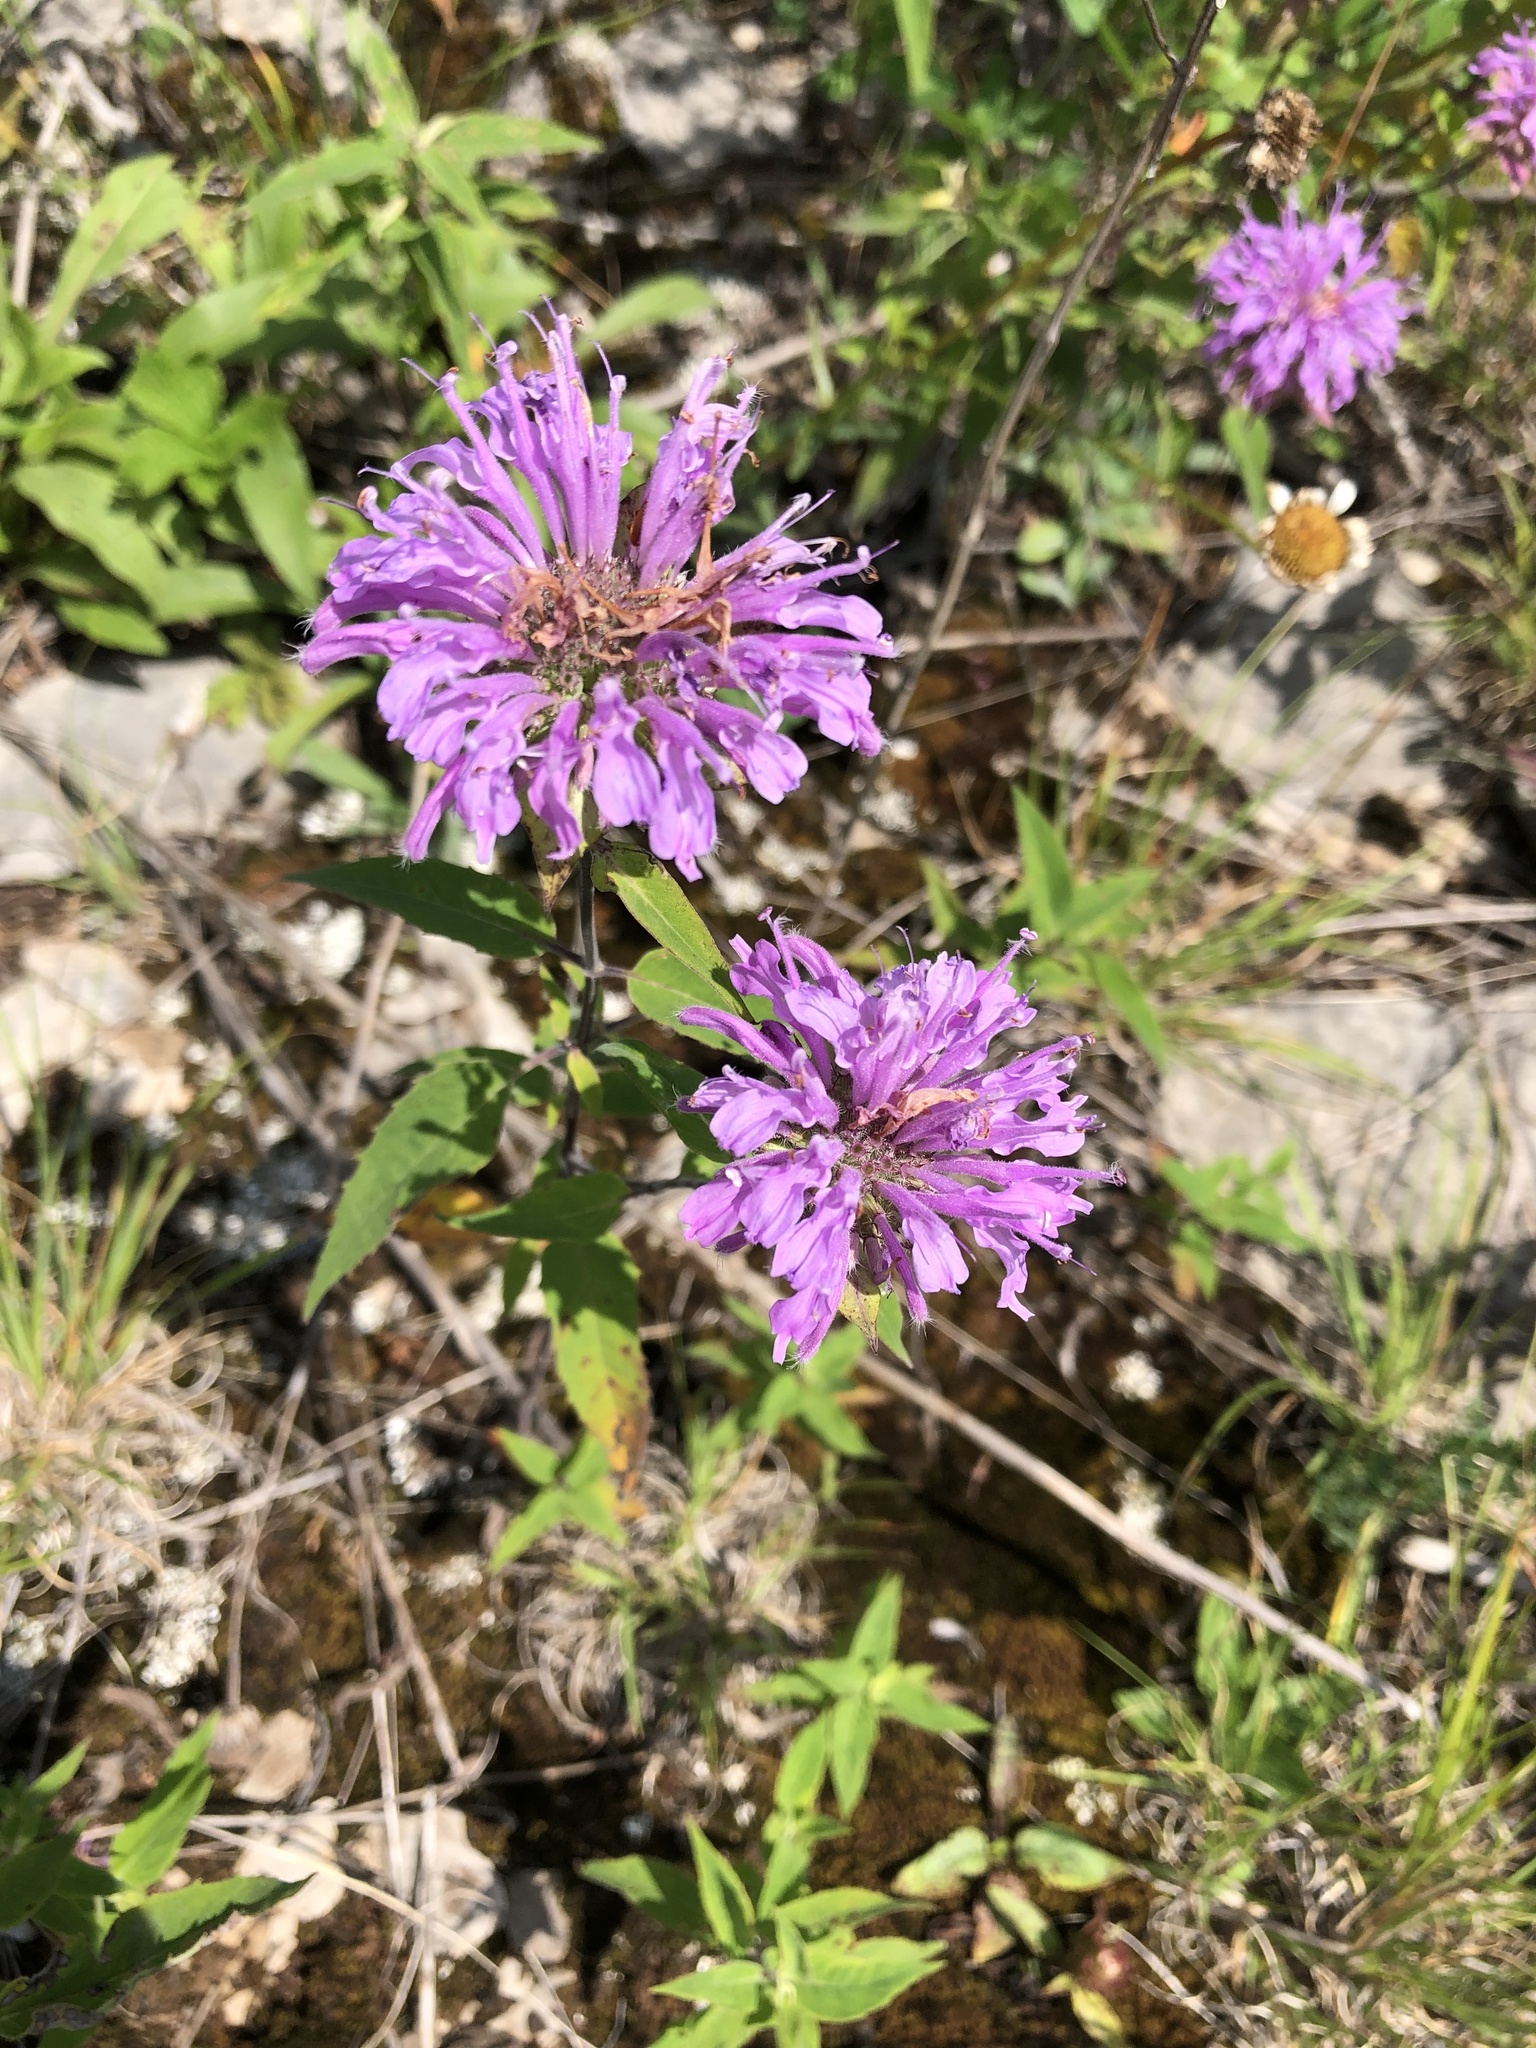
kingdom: Plantae
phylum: Tracheophyta
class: Magnoliopsida
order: Lamiales
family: Lamiaceae
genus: Monarda
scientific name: Monarda fistulosa
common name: Purple beebalm
